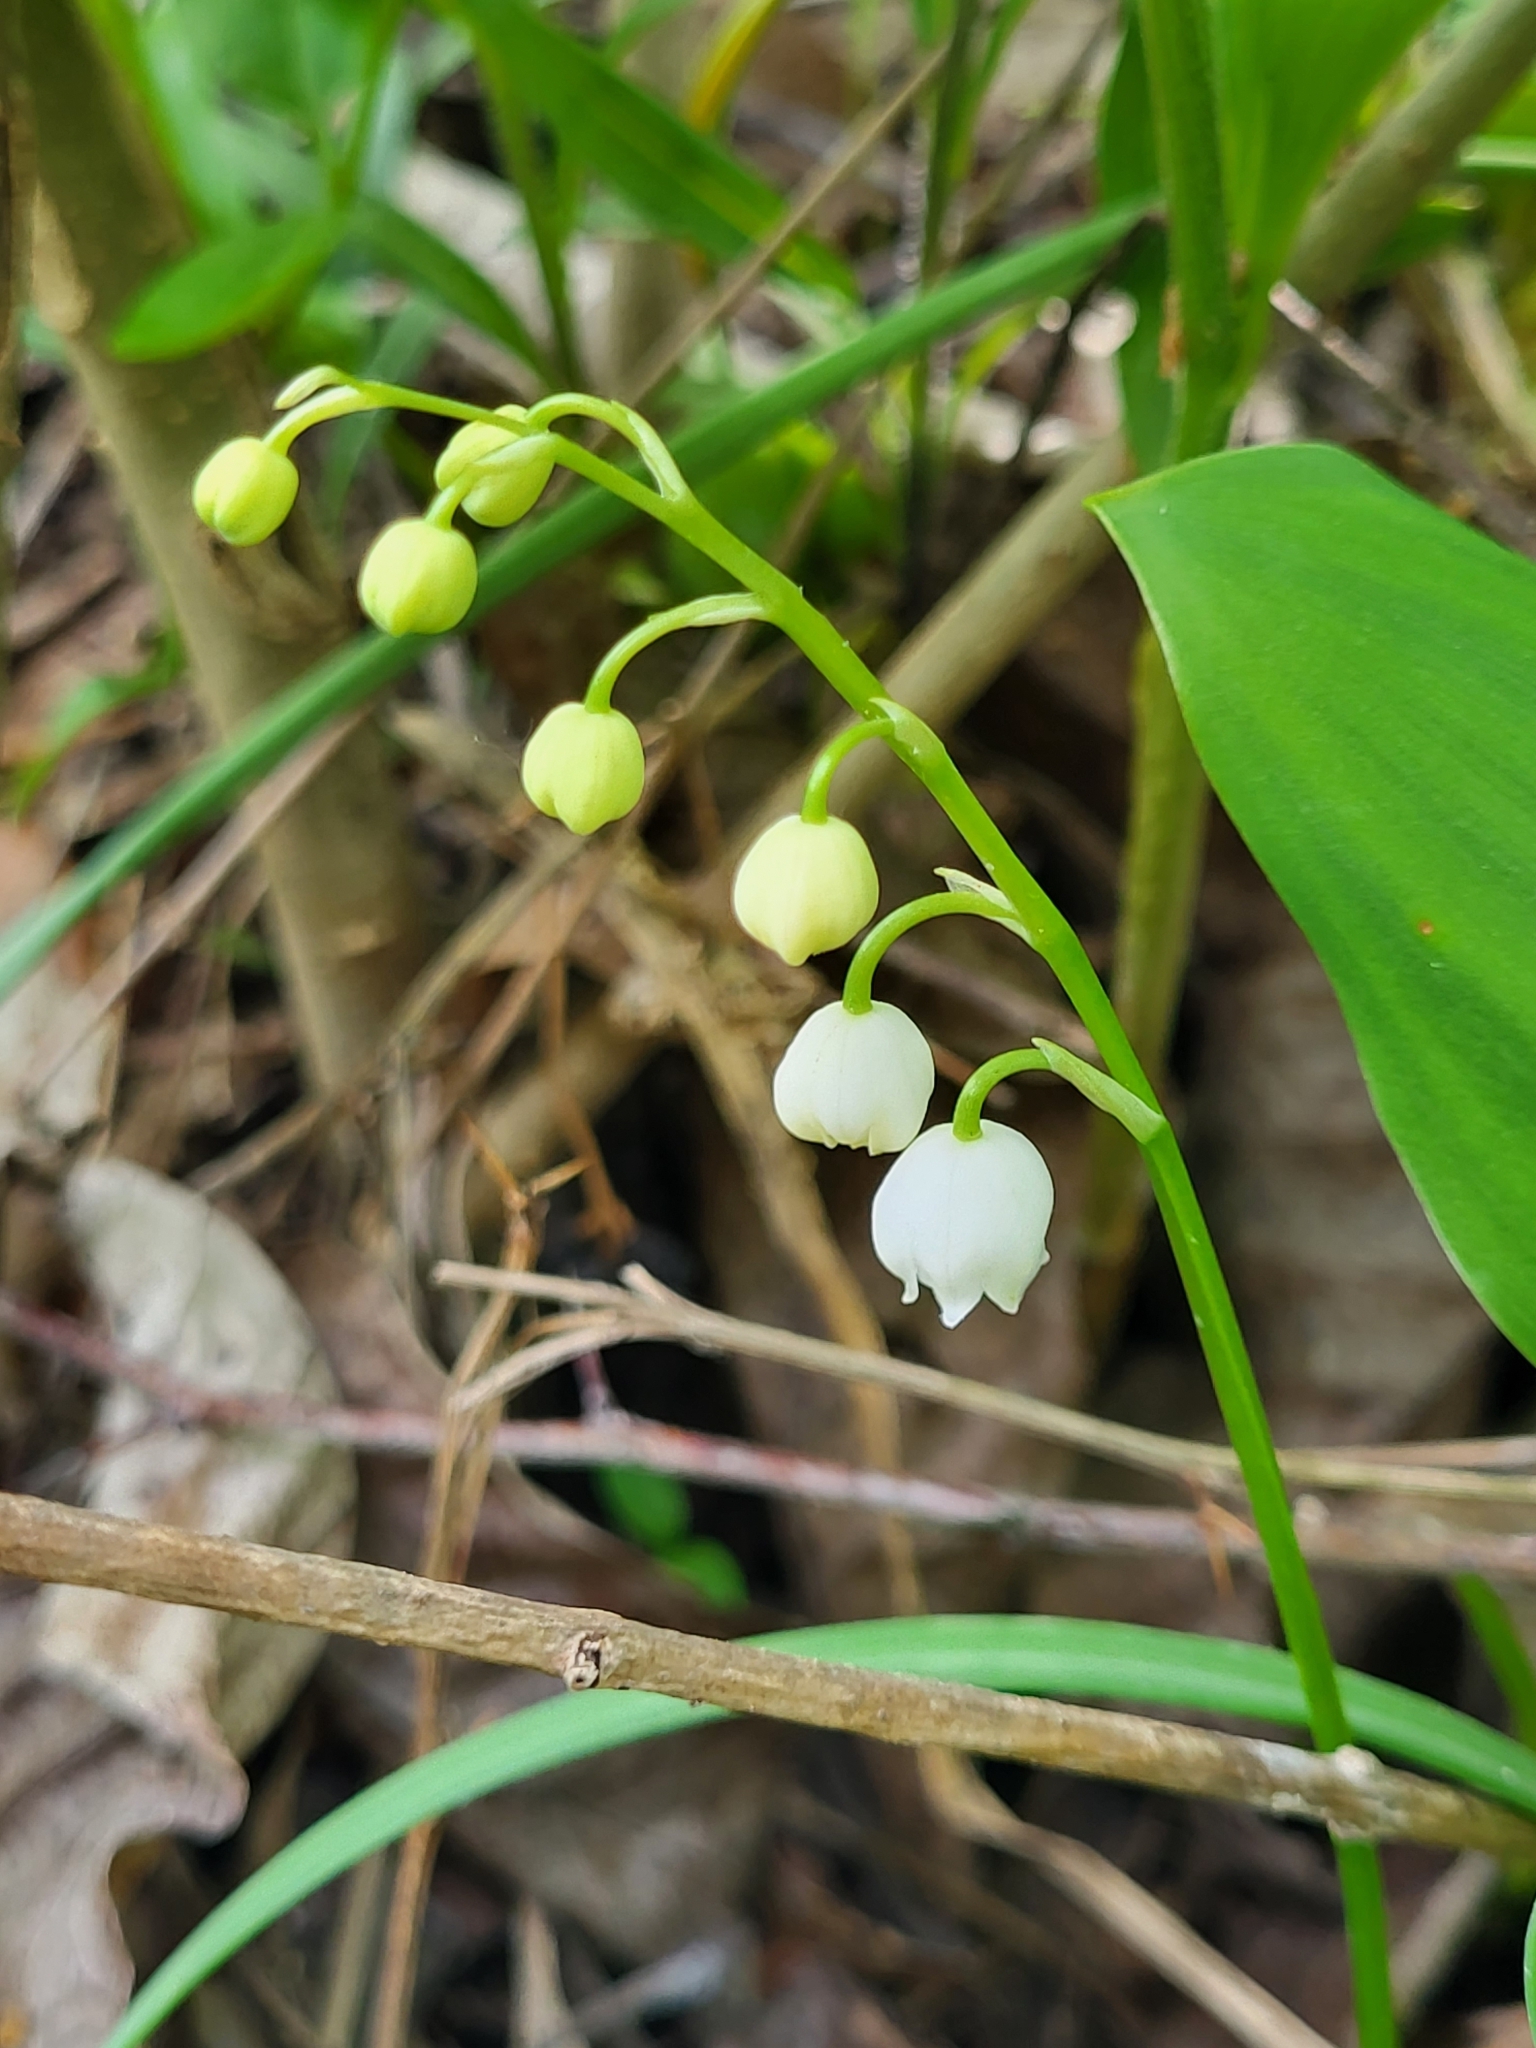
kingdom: Plantae
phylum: Tracheophyta
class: Liliopsida
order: Asparagales
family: Asparagaceae
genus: Convallaria
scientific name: Convallaria majalis
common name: Lily-of-the-valley
